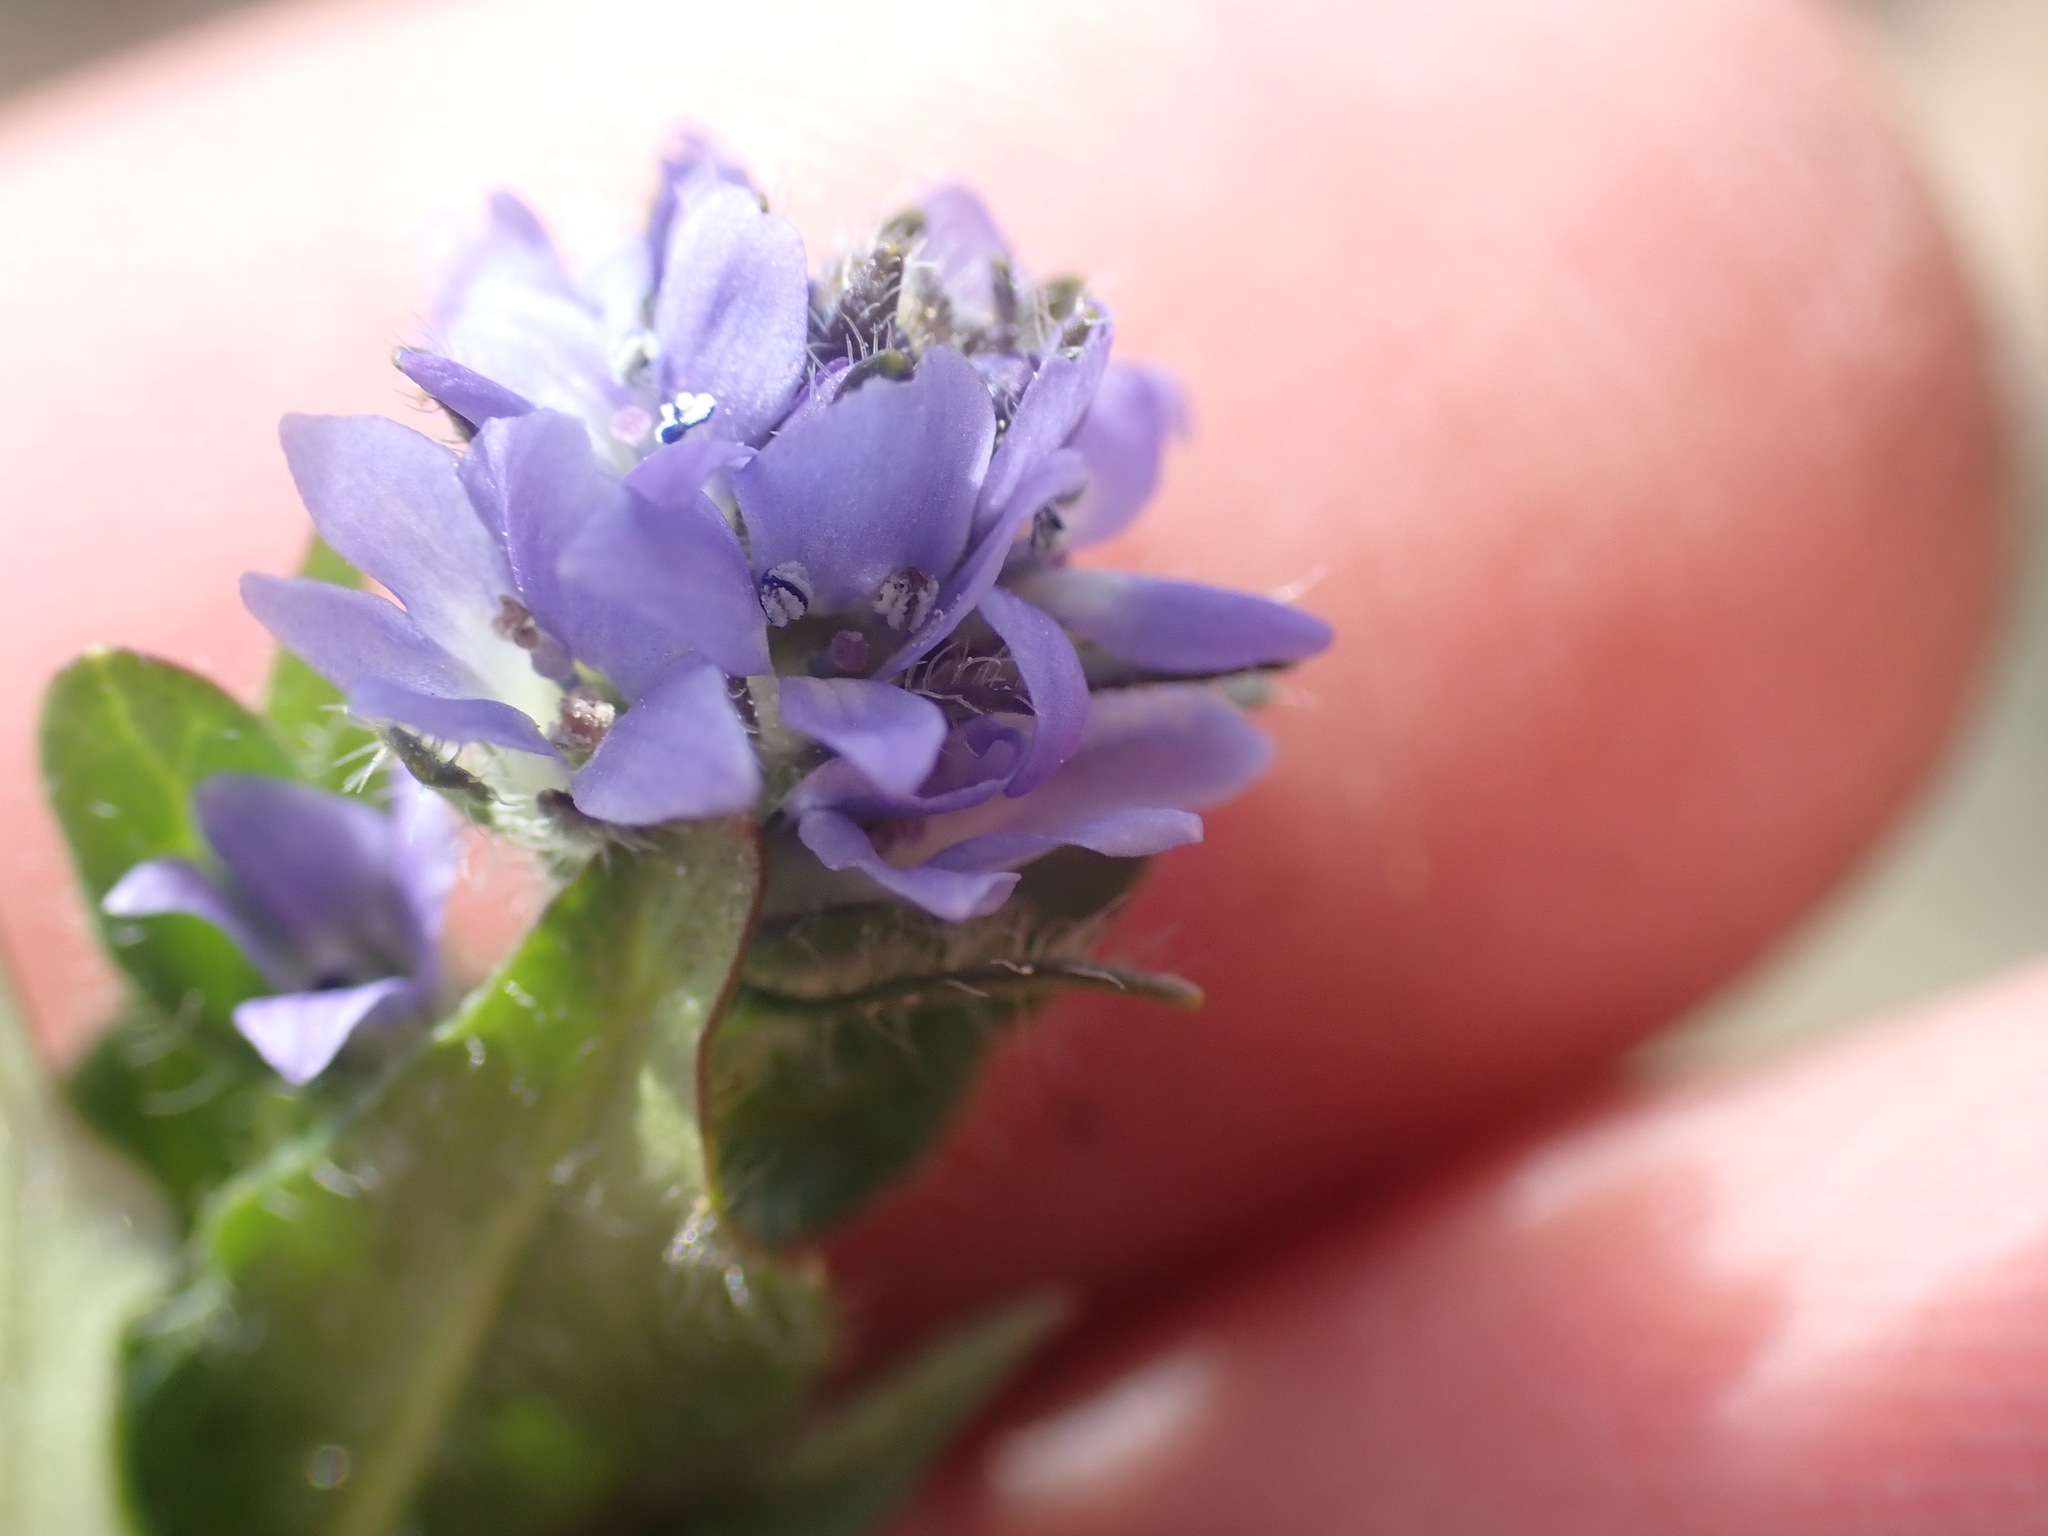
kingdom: Plantae
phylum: Tracheophyta
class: Magnoliopsida
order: Lamiales
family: Plantaginaceae
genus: Veronica
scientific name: Veronica wormskjoldii
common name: American alpine speedwell
